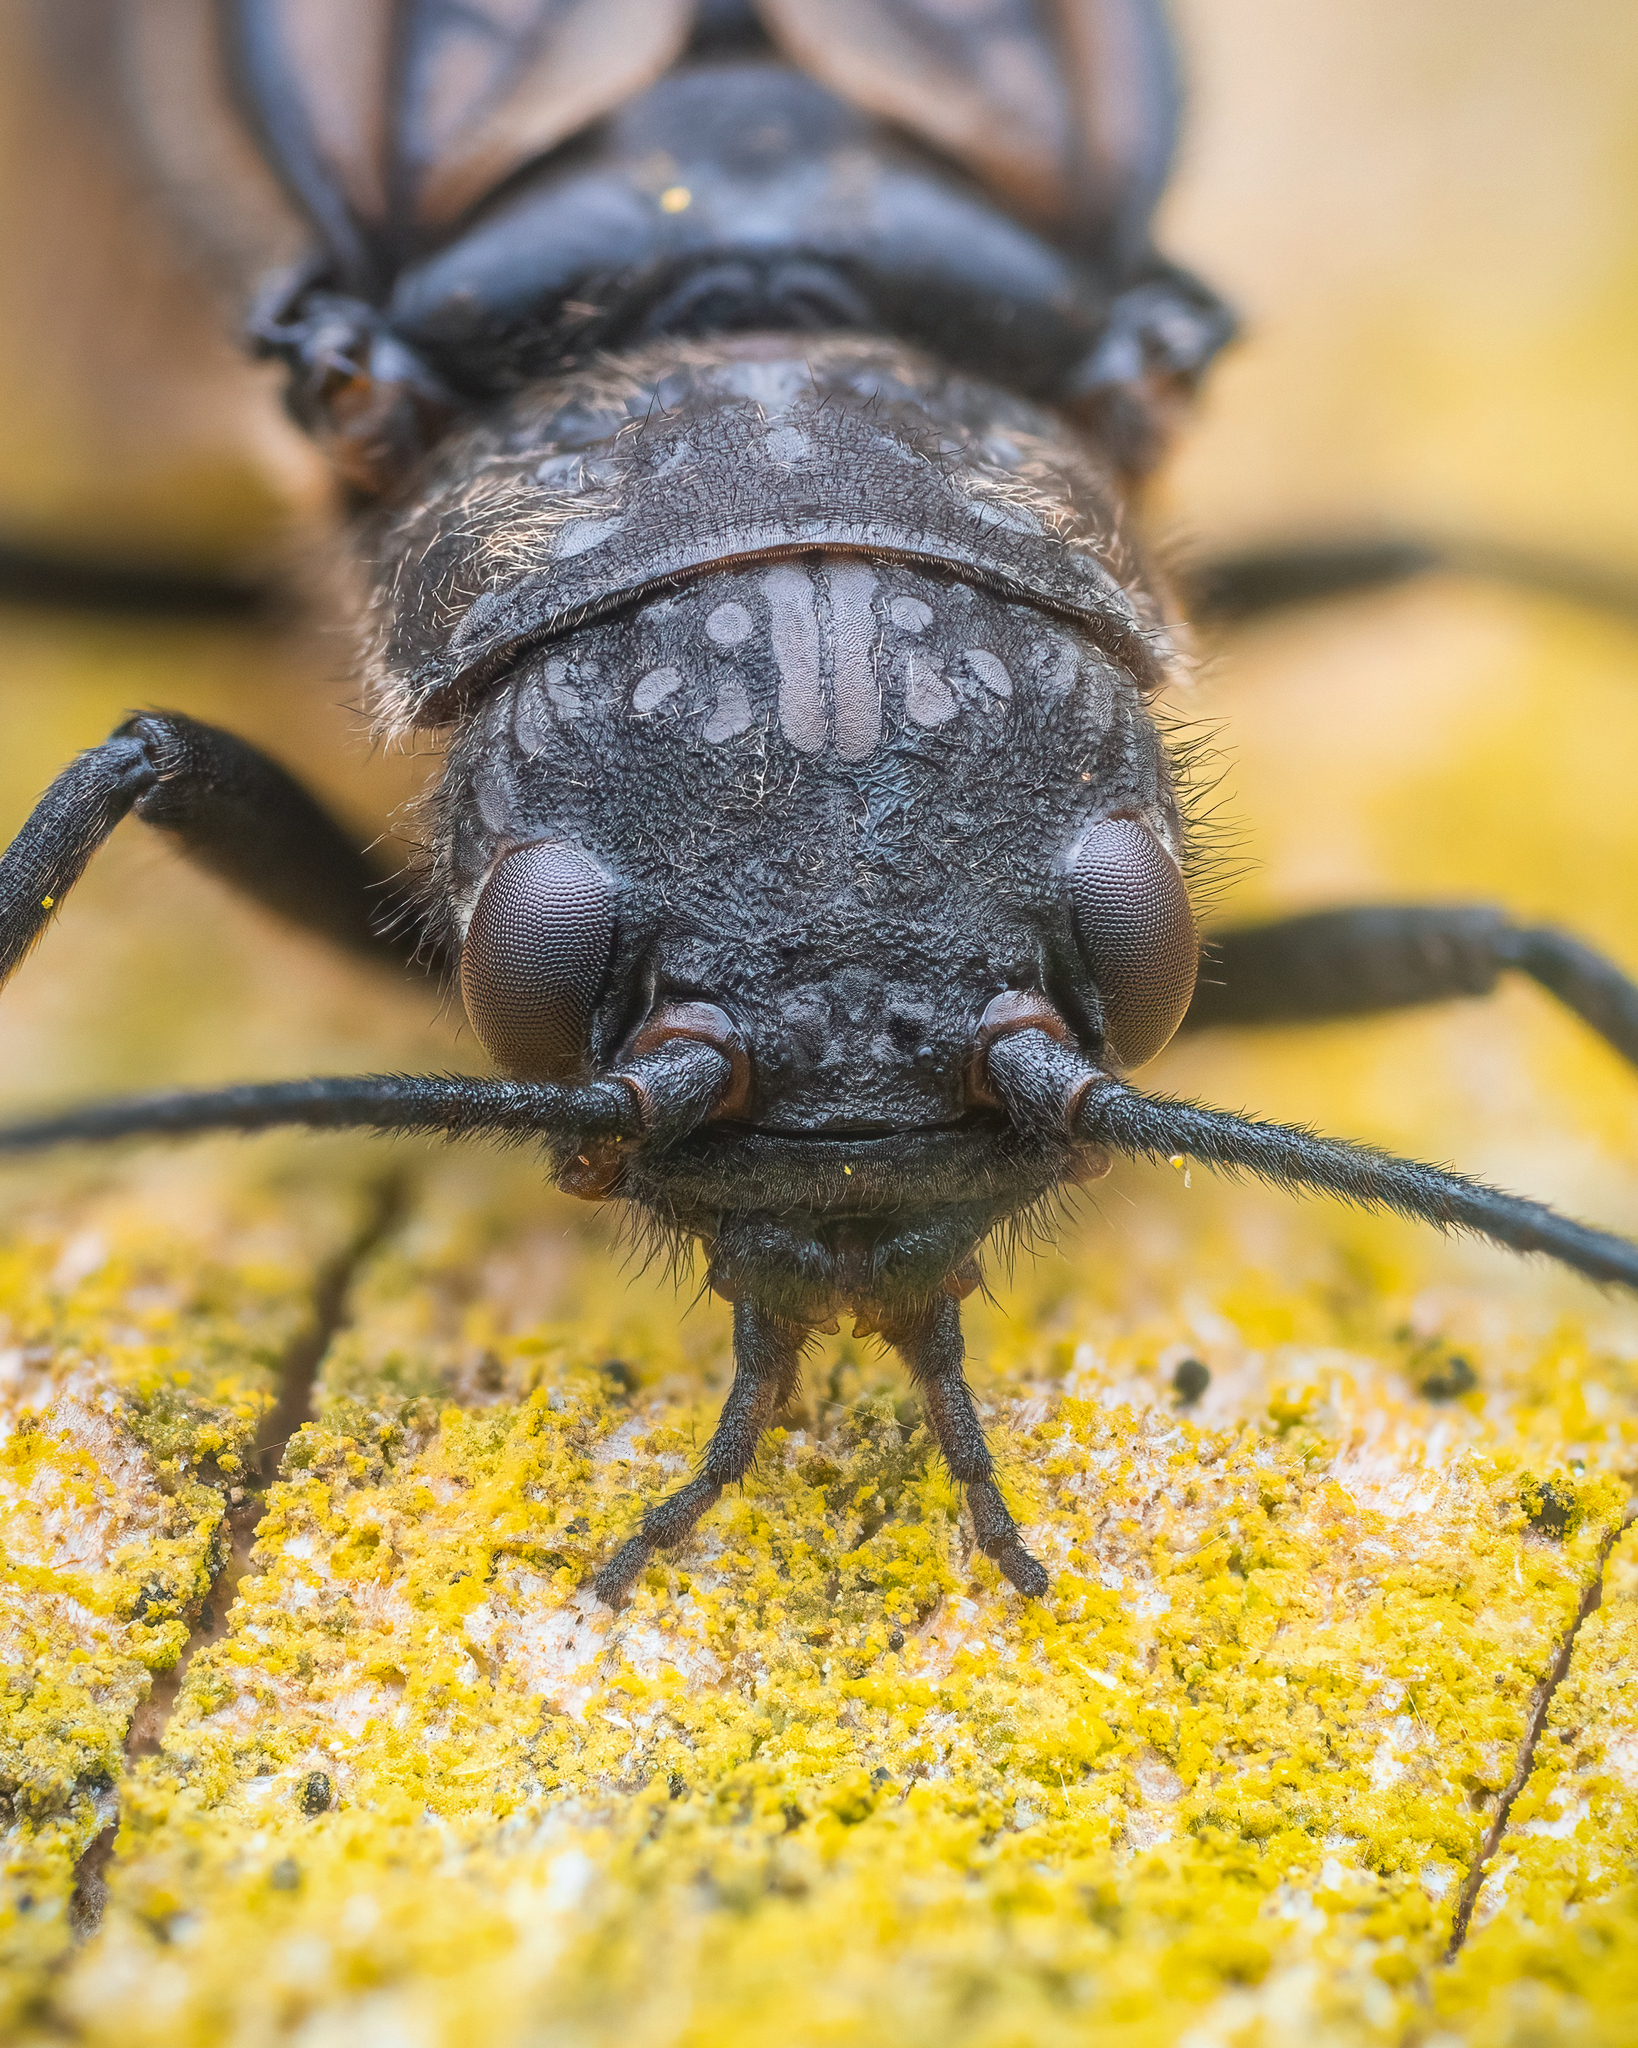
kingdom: Animalia
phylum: Arthropoda
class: Insecta
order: Megaloptera
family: Sialidae
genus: Sialis
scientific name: Sialis
